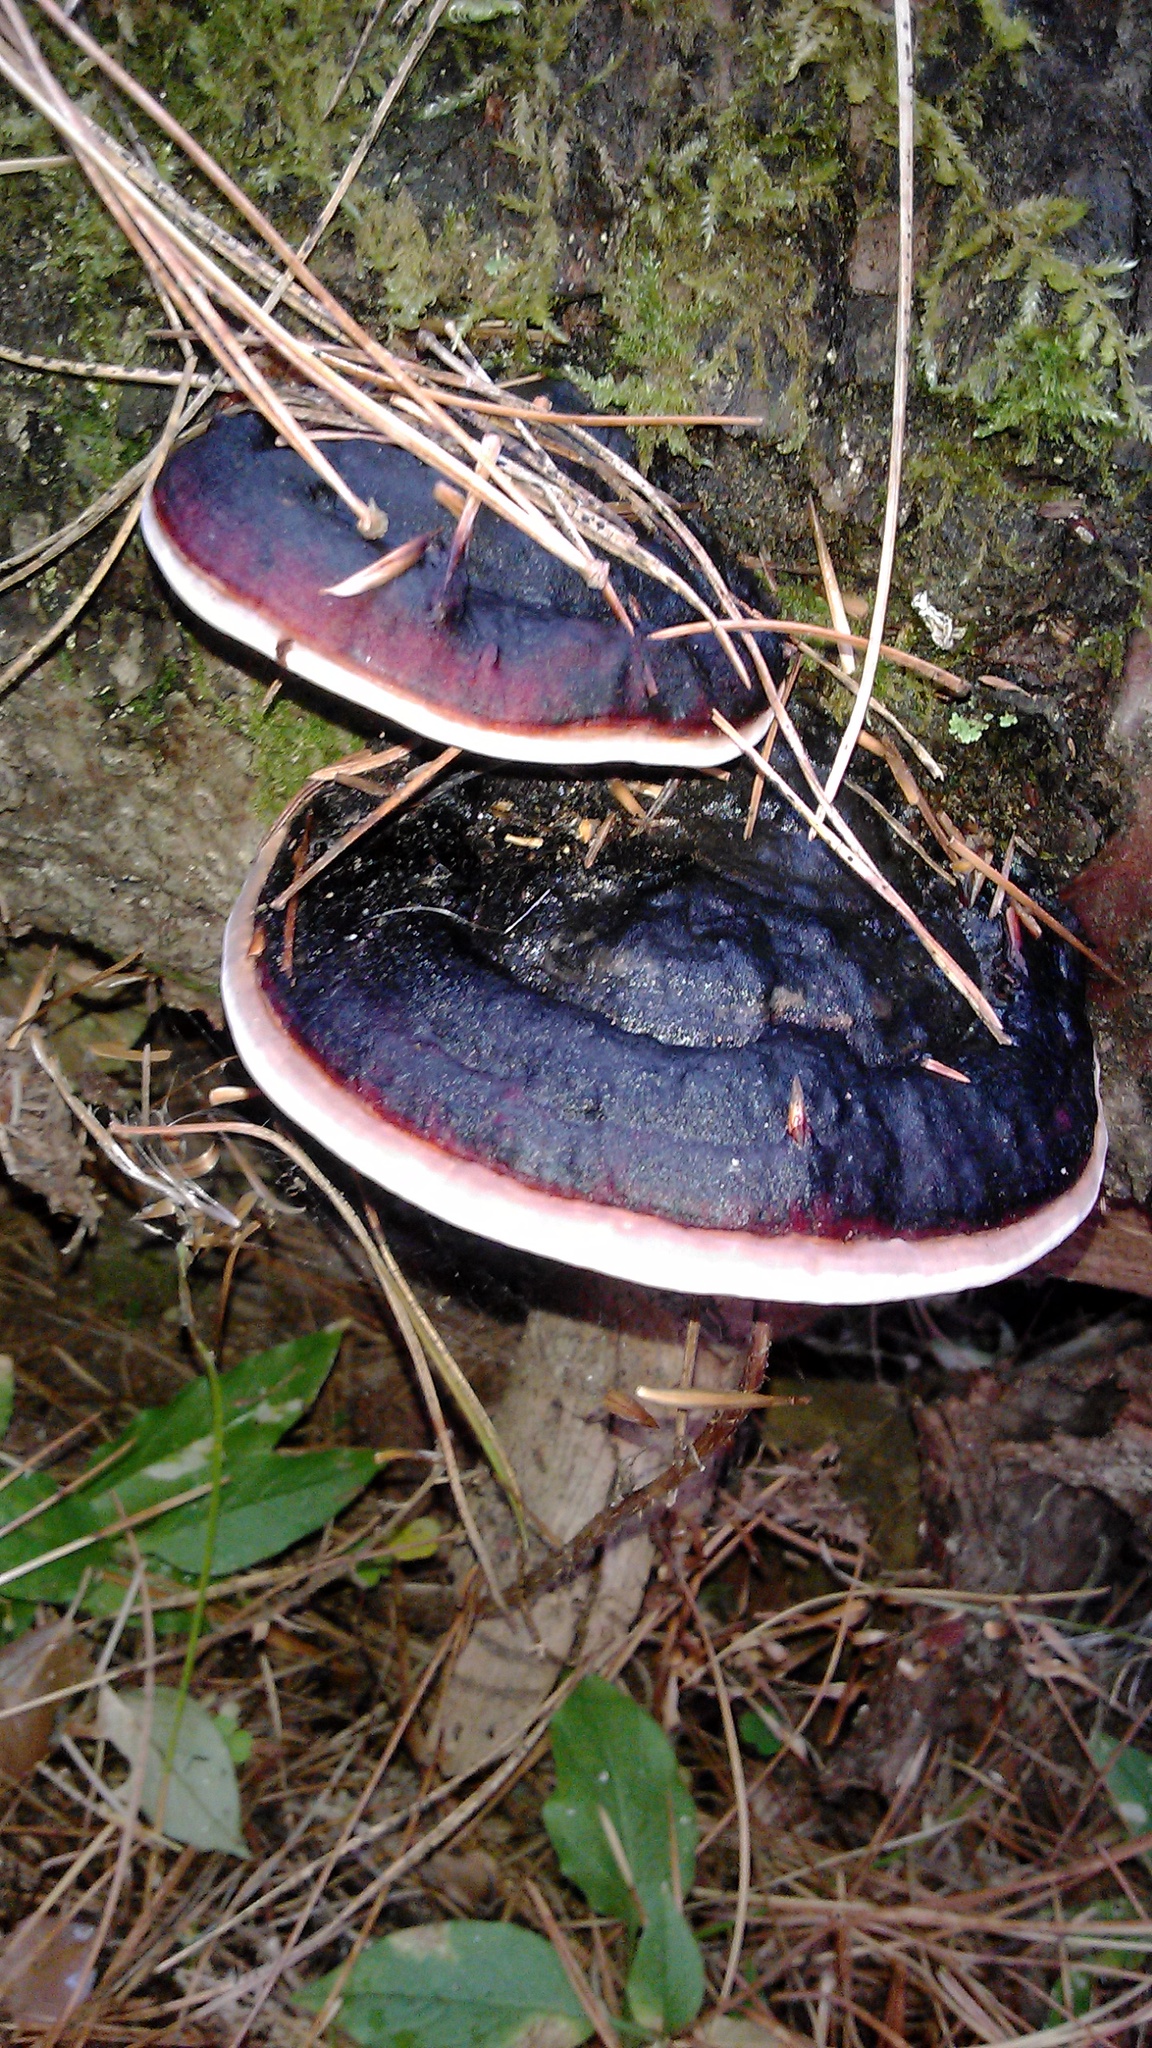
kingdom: Fungi
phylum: Basidiomycota
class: Agaricomycetes
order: Polyporales
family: Fomitopsidaceae
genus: Fomitopsis
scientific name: Fomitopsis pinicola
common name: Red-belted bracket
